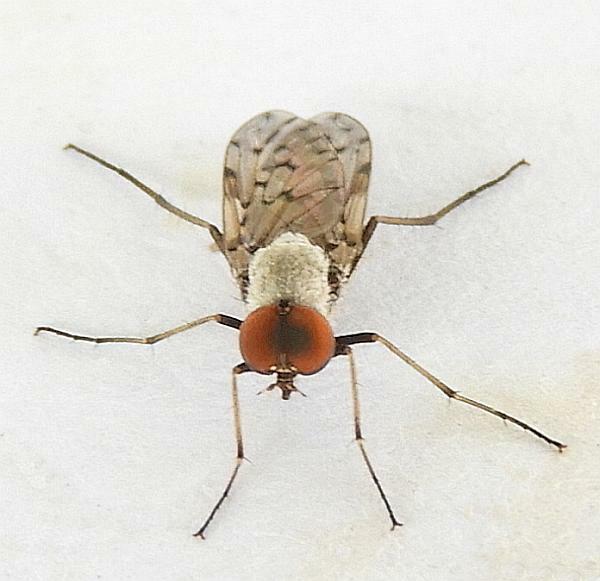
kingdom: Animalia
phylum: Arthropoda
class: Insecta
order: Diptera
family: Therevidae
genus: Litolinga
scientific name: Litolinga tergisa
